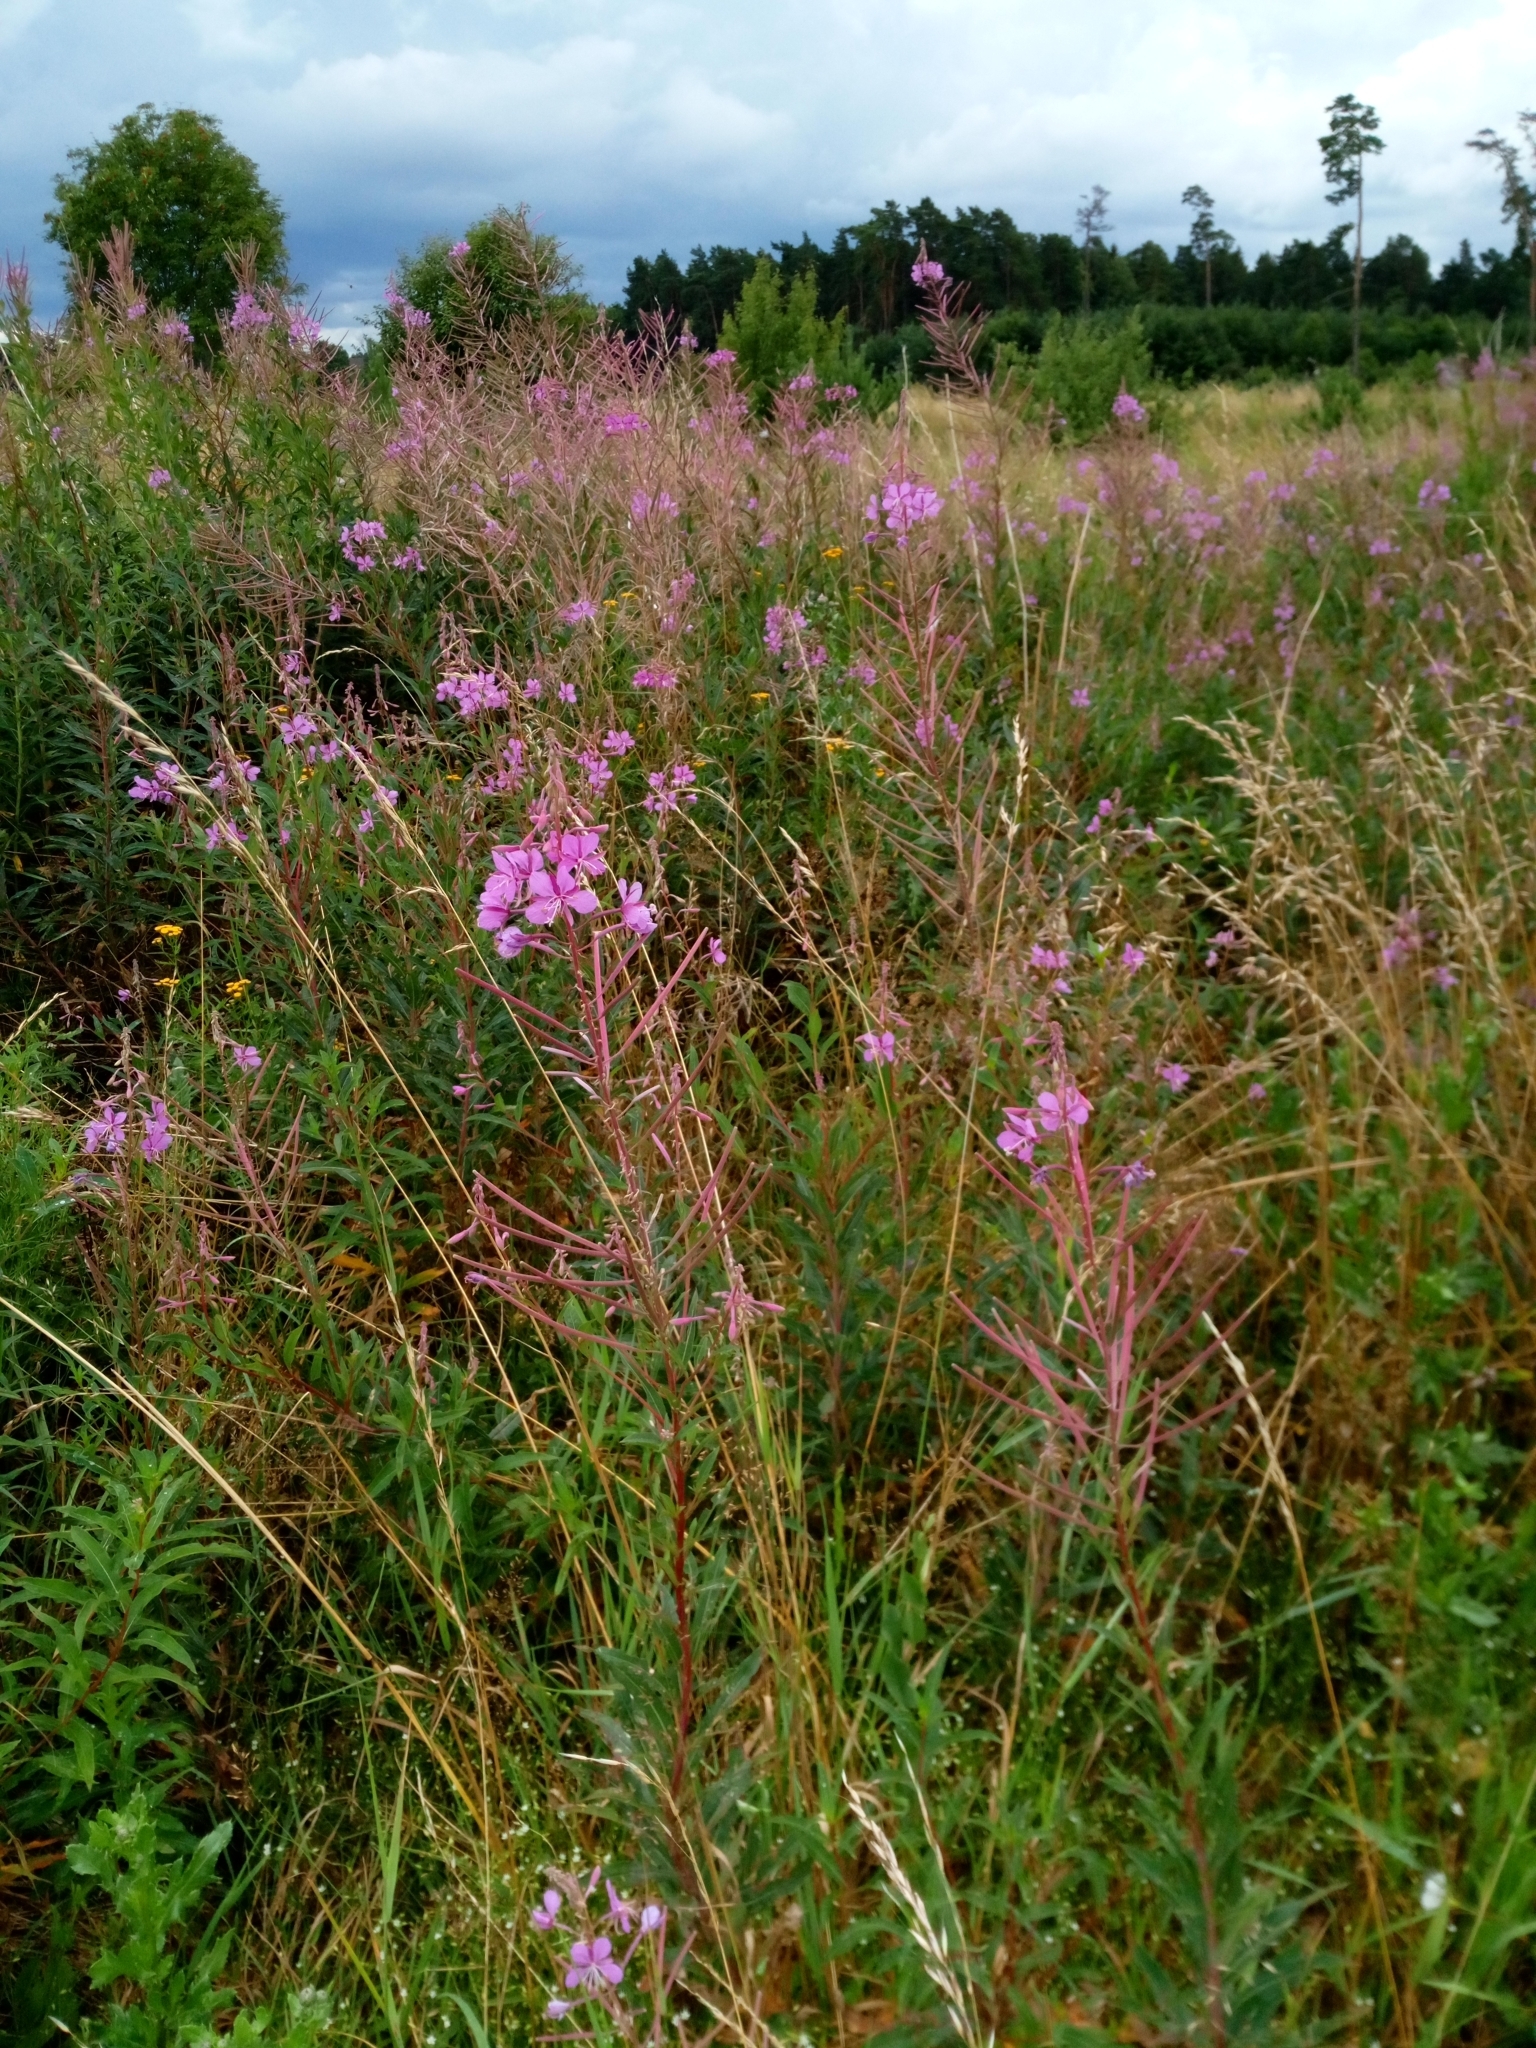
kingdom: Plantae
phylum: Tracheophyta
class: Magnoliopsida
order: Myrtales
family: Onagraceae
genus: Chamaenerion
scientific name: Chamaenerion angustifolium
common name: Fireweed
